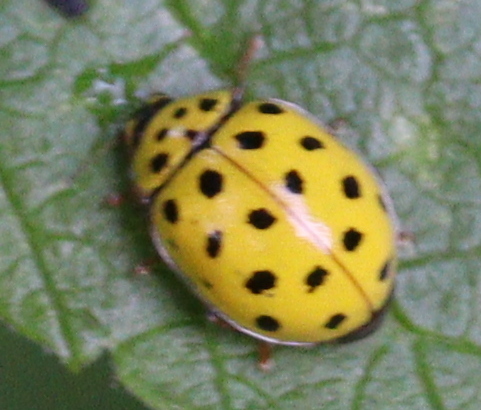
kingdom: Animalia
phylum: Arthropoda
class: Insecta
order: Coleoptera
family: Coccinellidae
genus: Psyllobora
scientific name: Psyllobora vigintiduopunctata
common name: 22-spot ladybird
